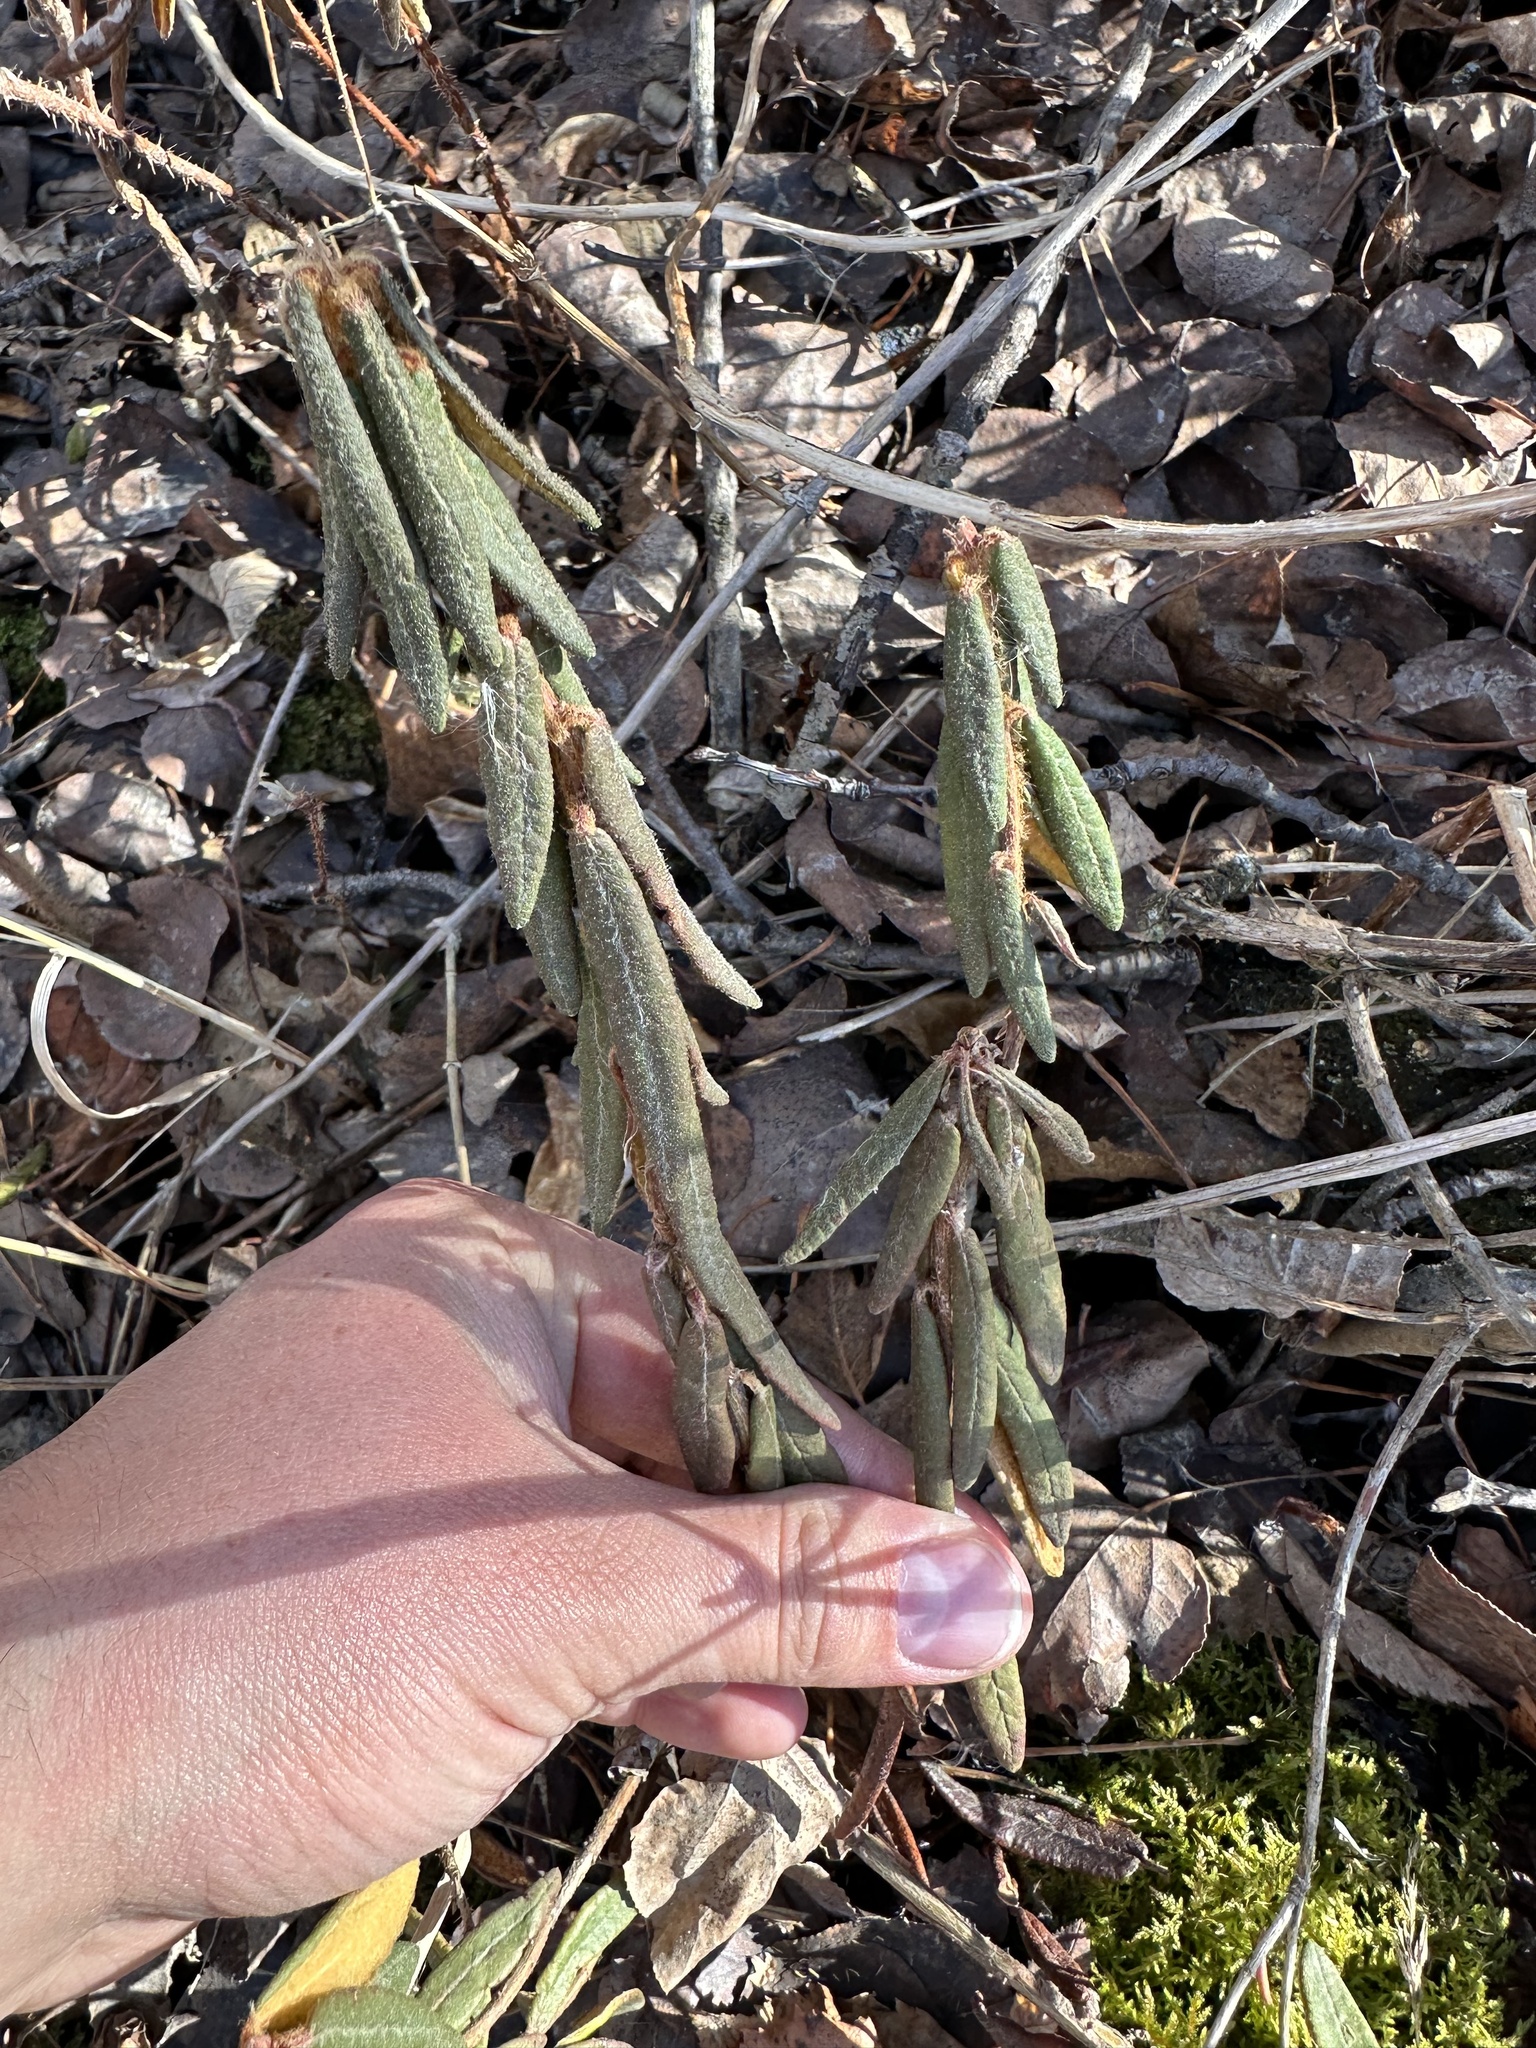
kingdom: Plantae
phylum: Tracheophyta
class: Magnoliopsida
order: Ericales
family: Ericaceae
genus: Rhododendron
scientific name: Rhododendron groenlandicum
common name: Bog labrador tea
